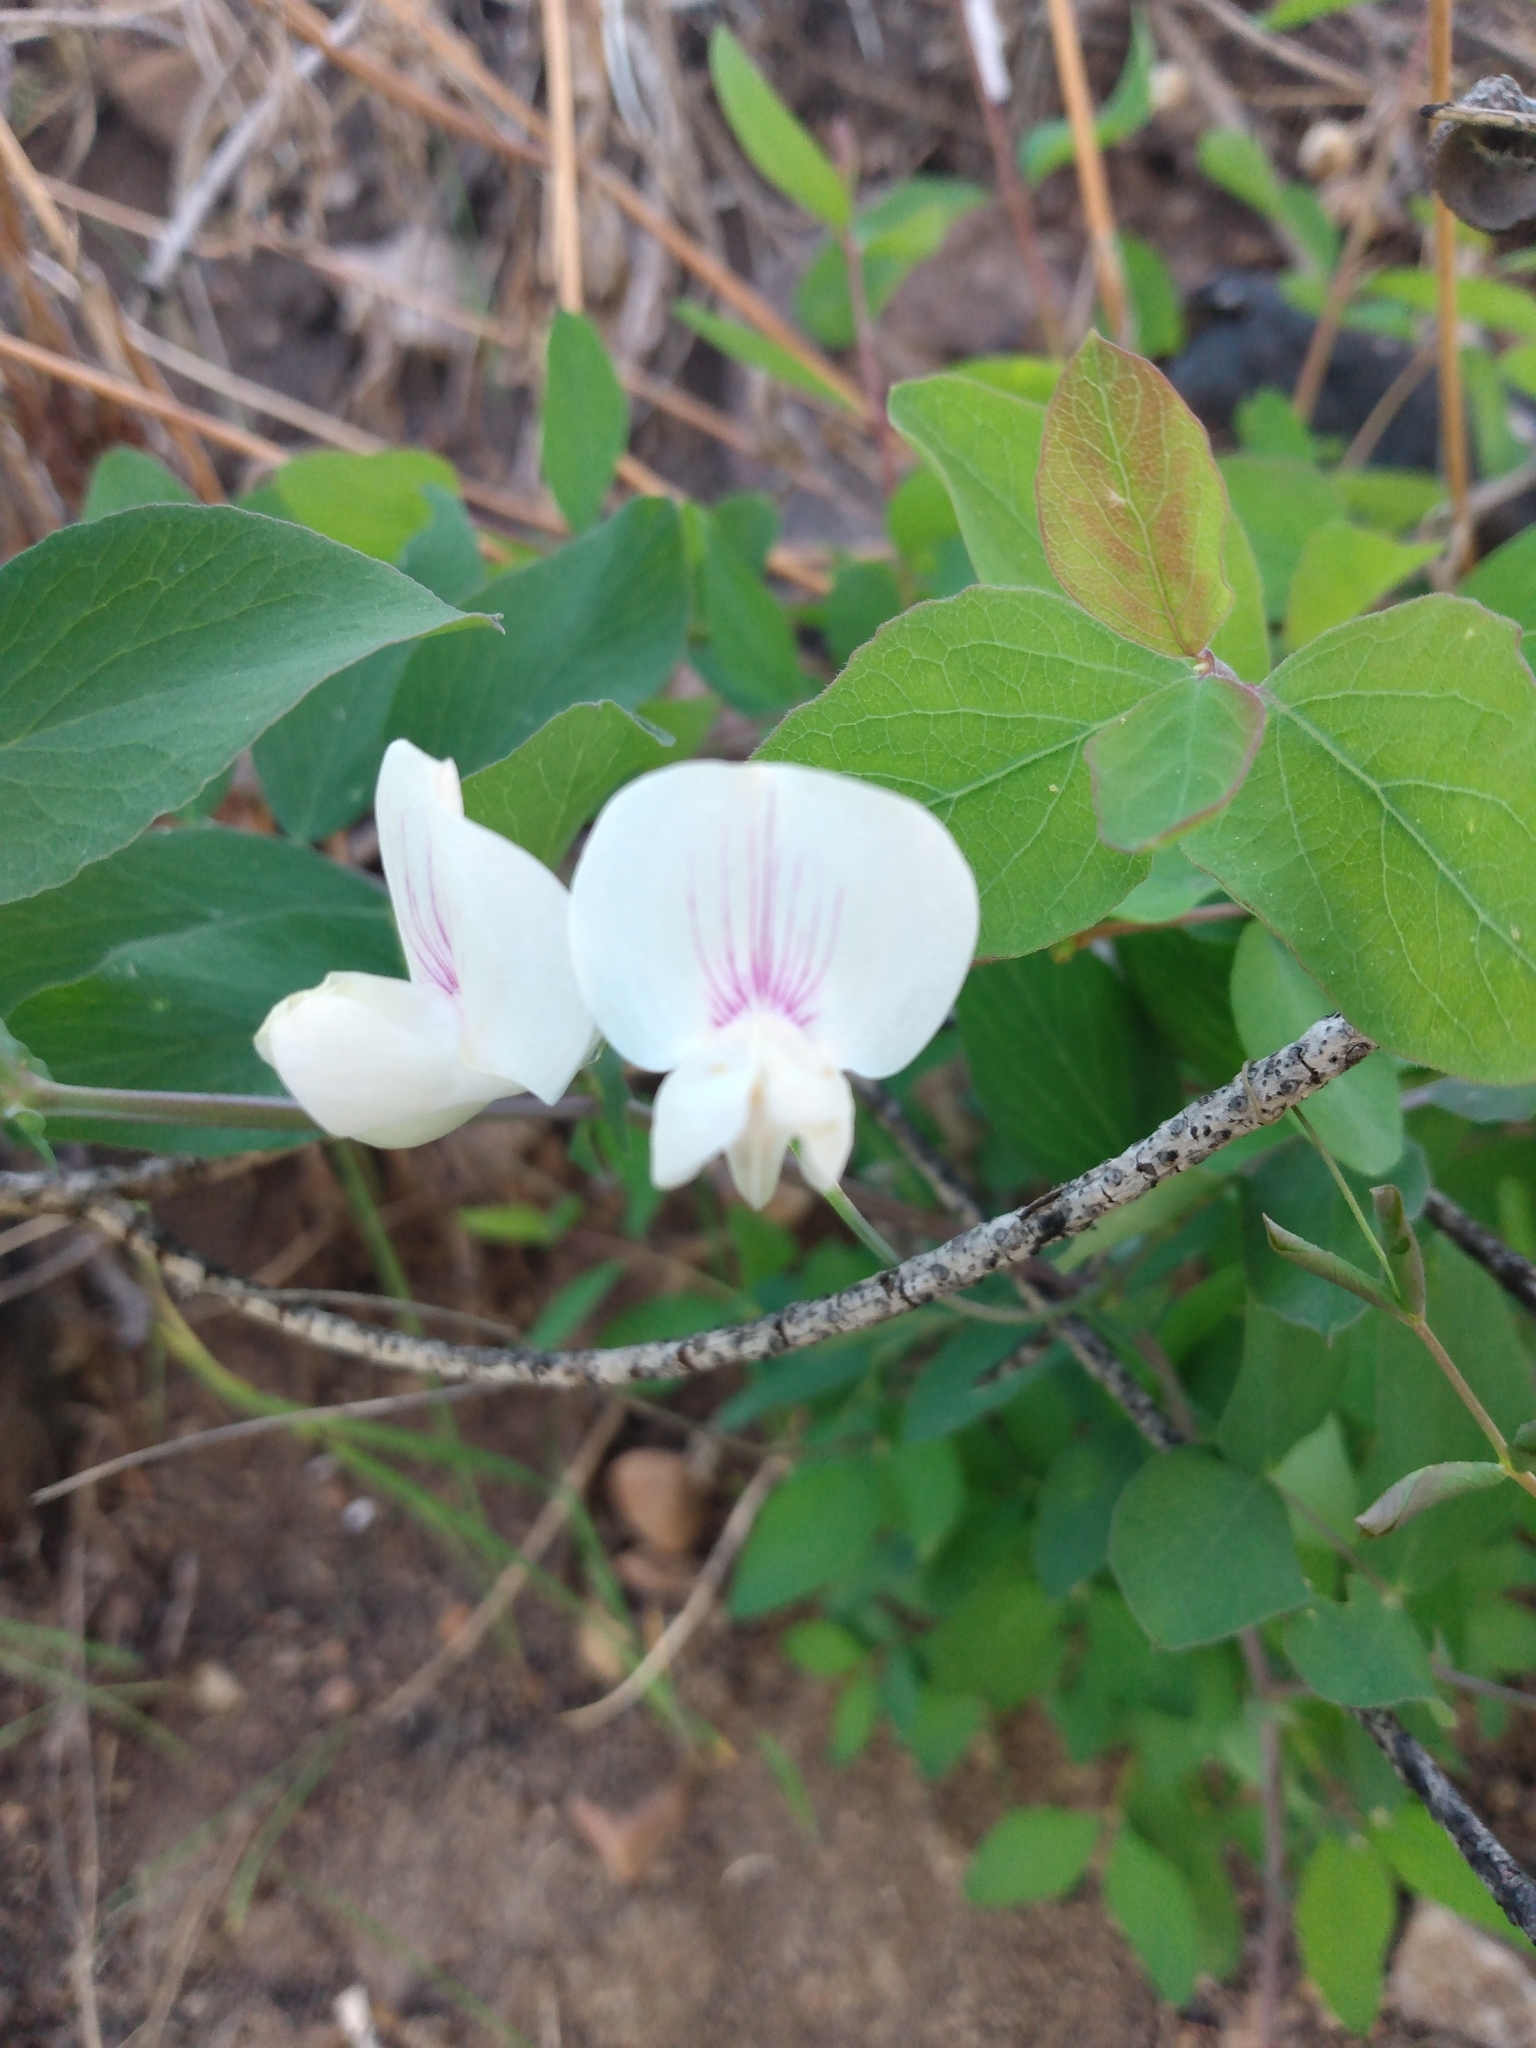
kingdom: Plantae
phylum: Tracheophyta
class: Magnoliopsida
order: Fabales
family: Fabaceae
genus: Lathyrus
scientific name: Lathyrus lanszwertii
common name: Lanszwert's vetchling
